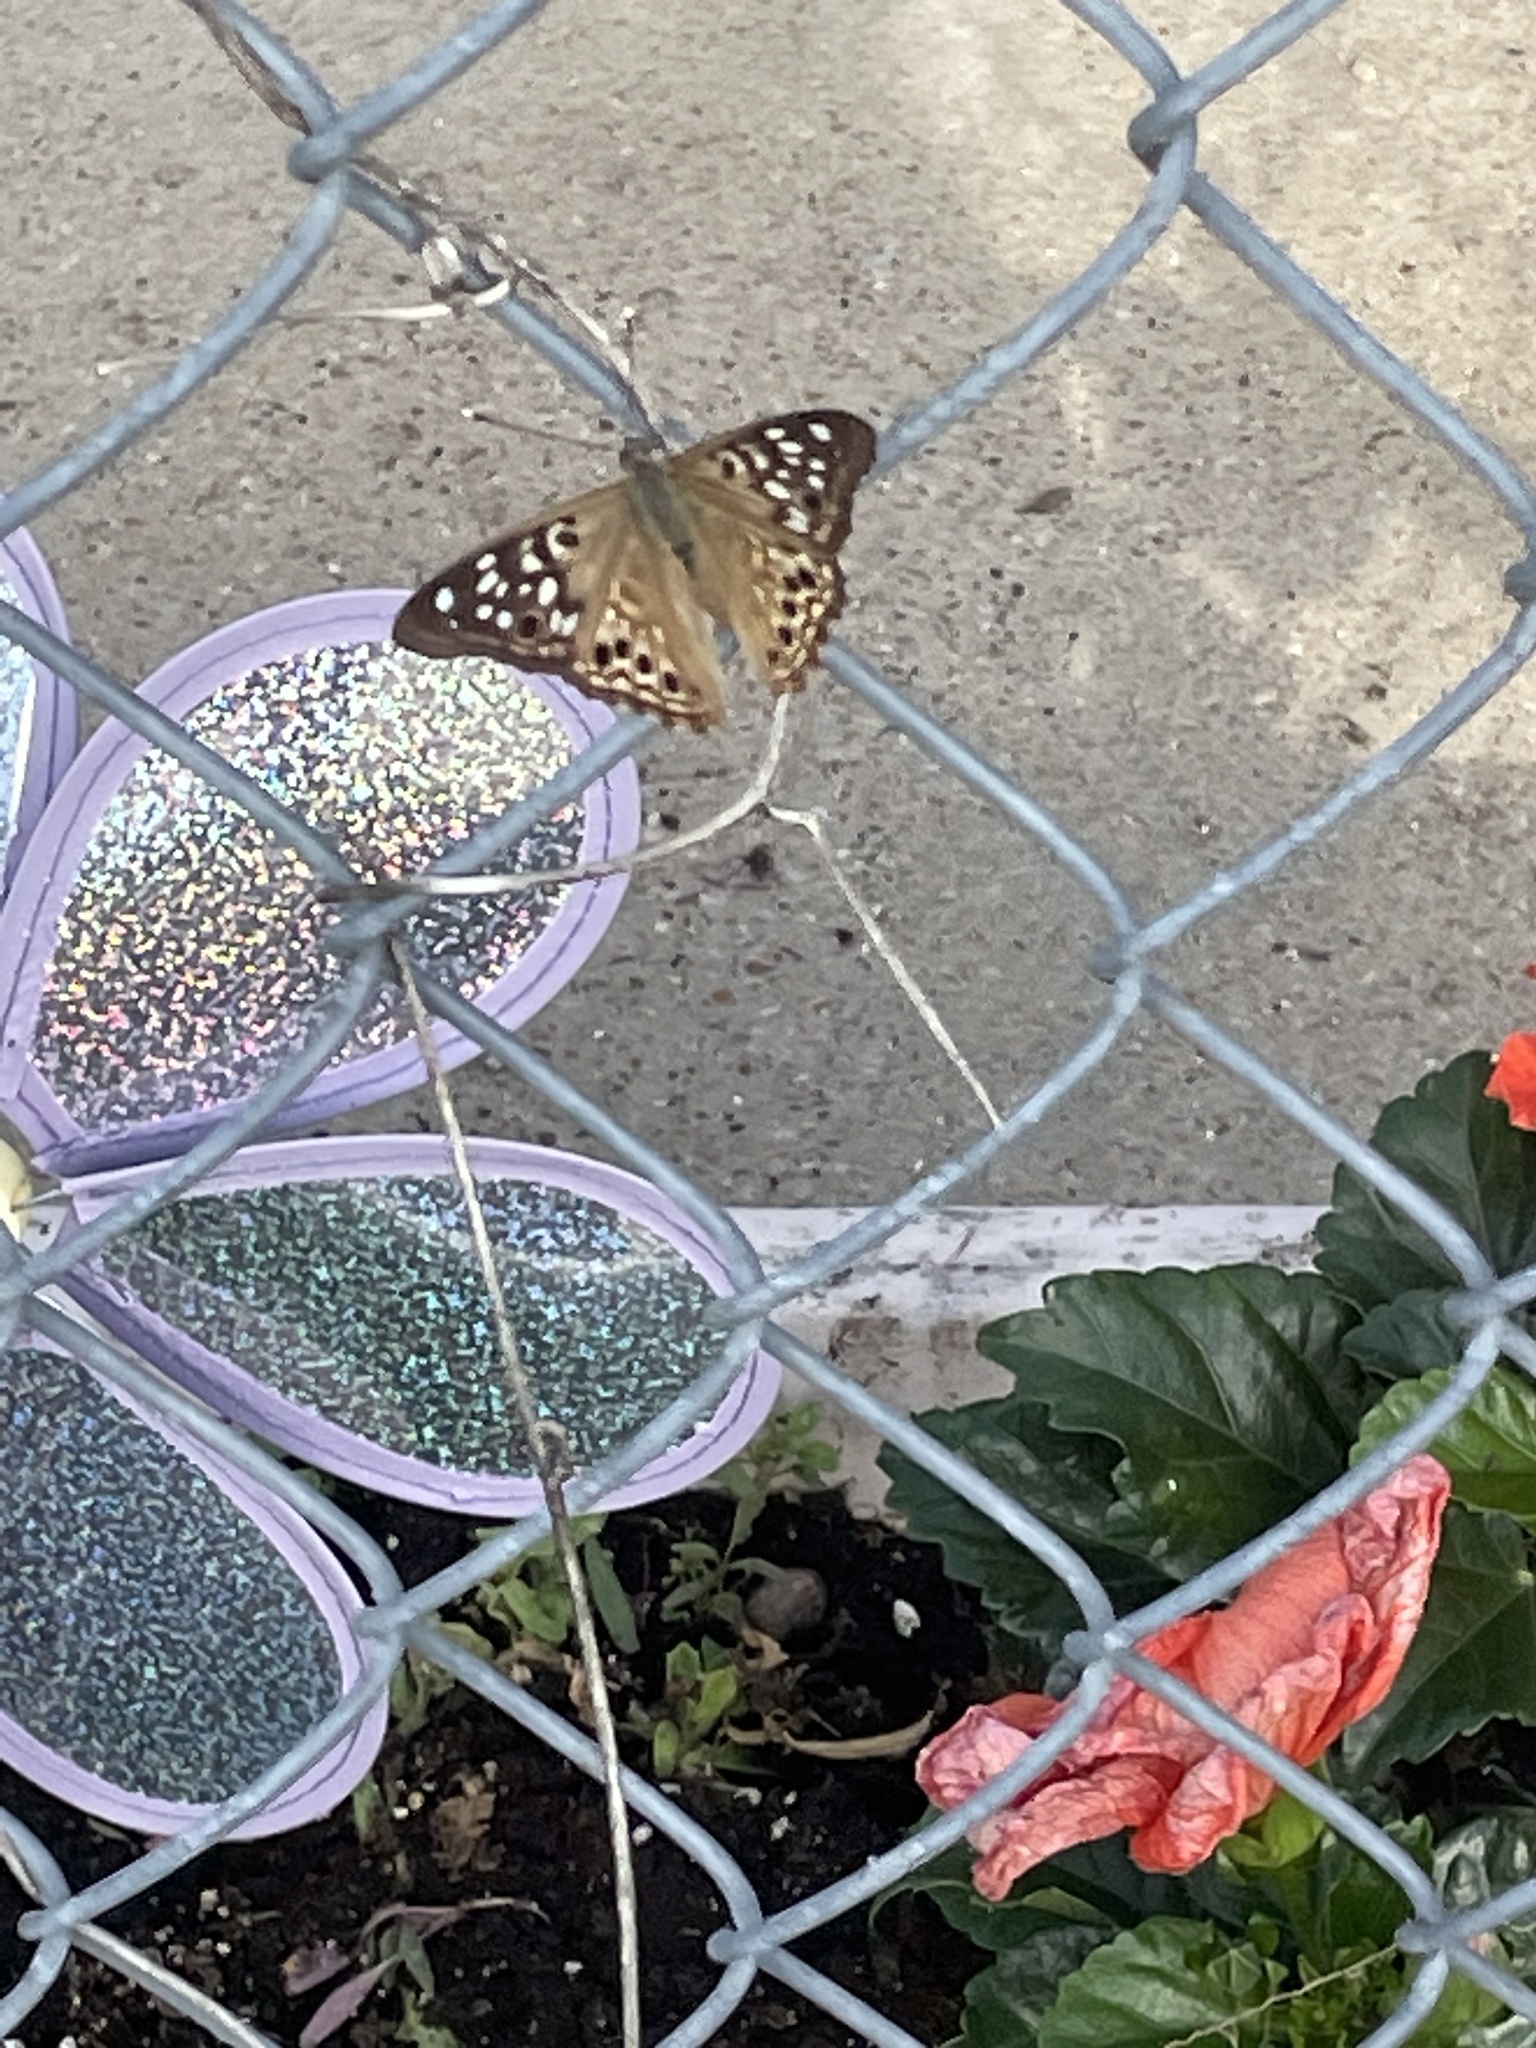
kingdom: Animalia
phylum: Arthropoda
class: Insecta
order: Lepidoptera
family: Nymphalidae
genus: Asterocampa
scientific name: Asterocampa celtis
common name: Hackberry emperor
